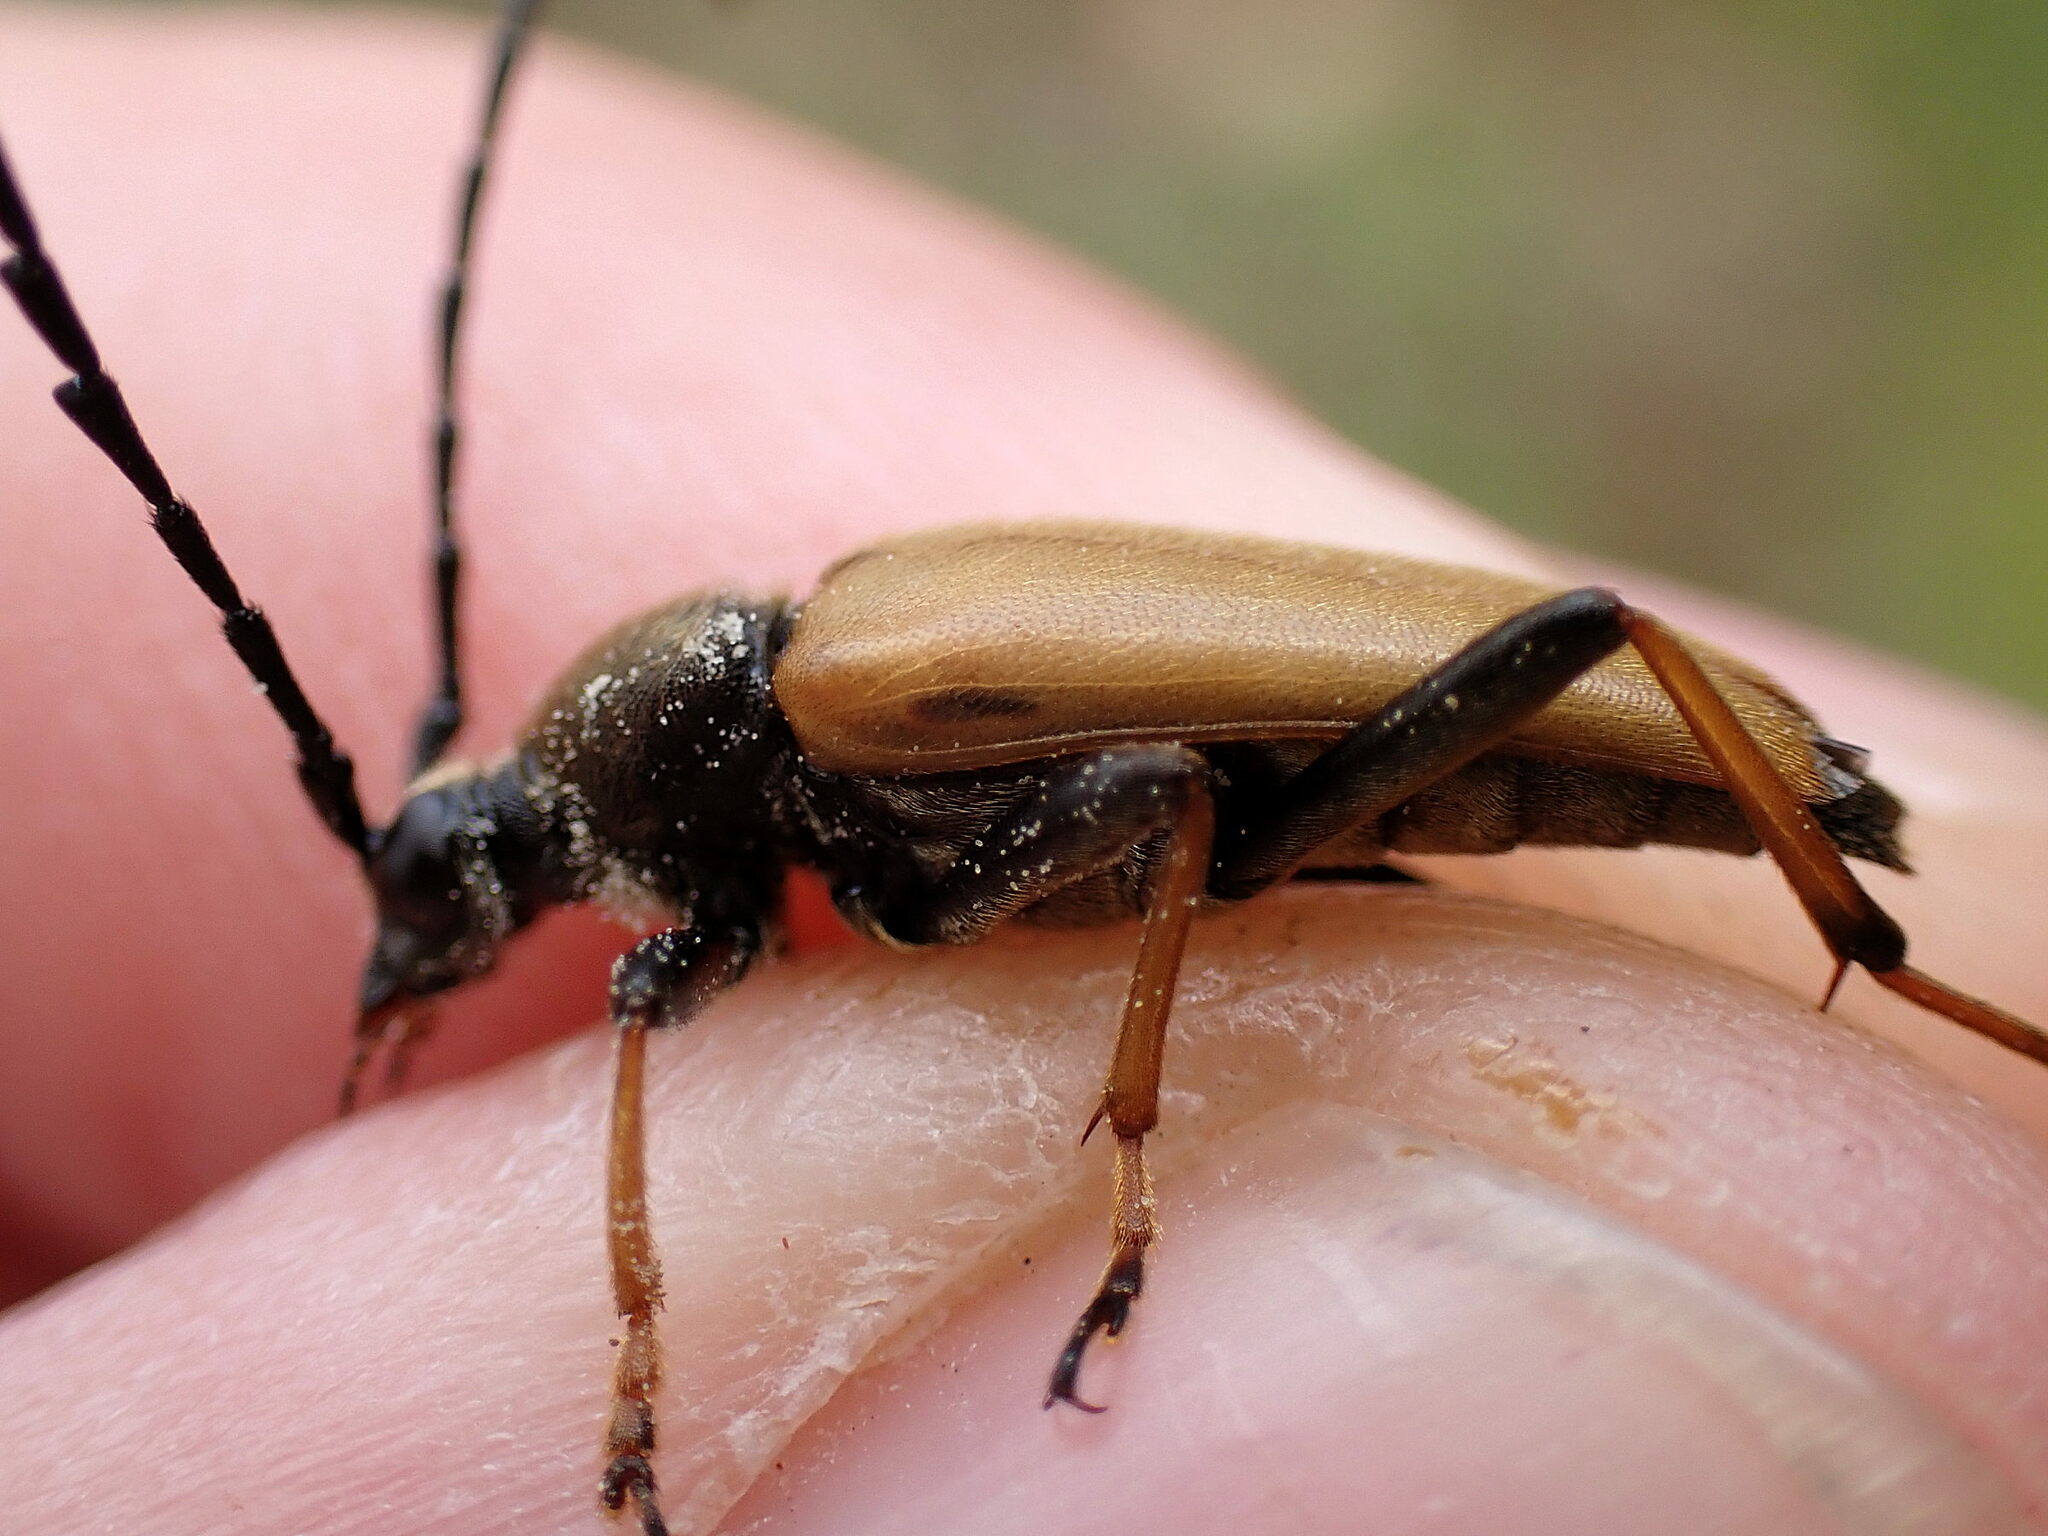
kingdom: Animalia
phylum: Arthropoda
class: Insecta
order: Coleoptera
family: Cerambycidae
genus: Stictoleptura
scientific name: Stictoleptura rubra
